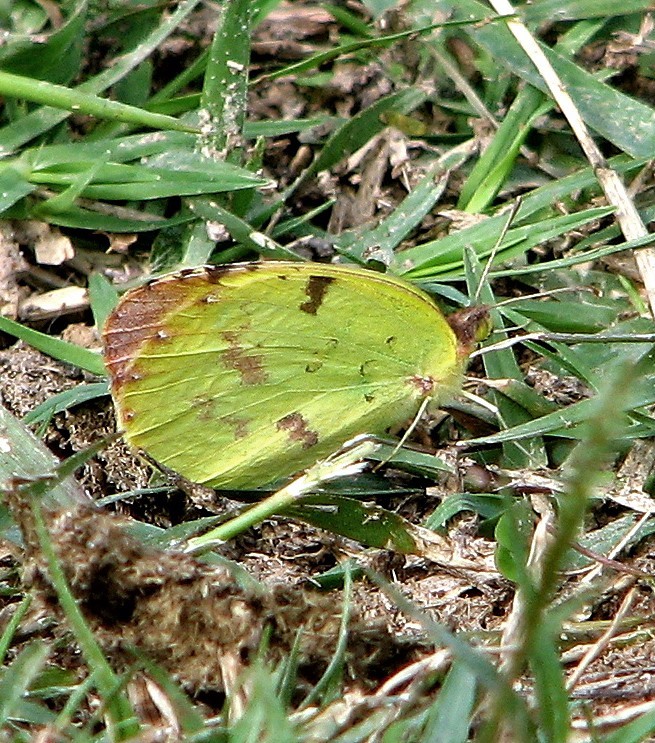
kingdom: Animalia
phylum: Arthropoda
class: Insecta
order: Lepidoptera
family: Pieridae
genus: Teriocolias
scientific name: Teriocolias
